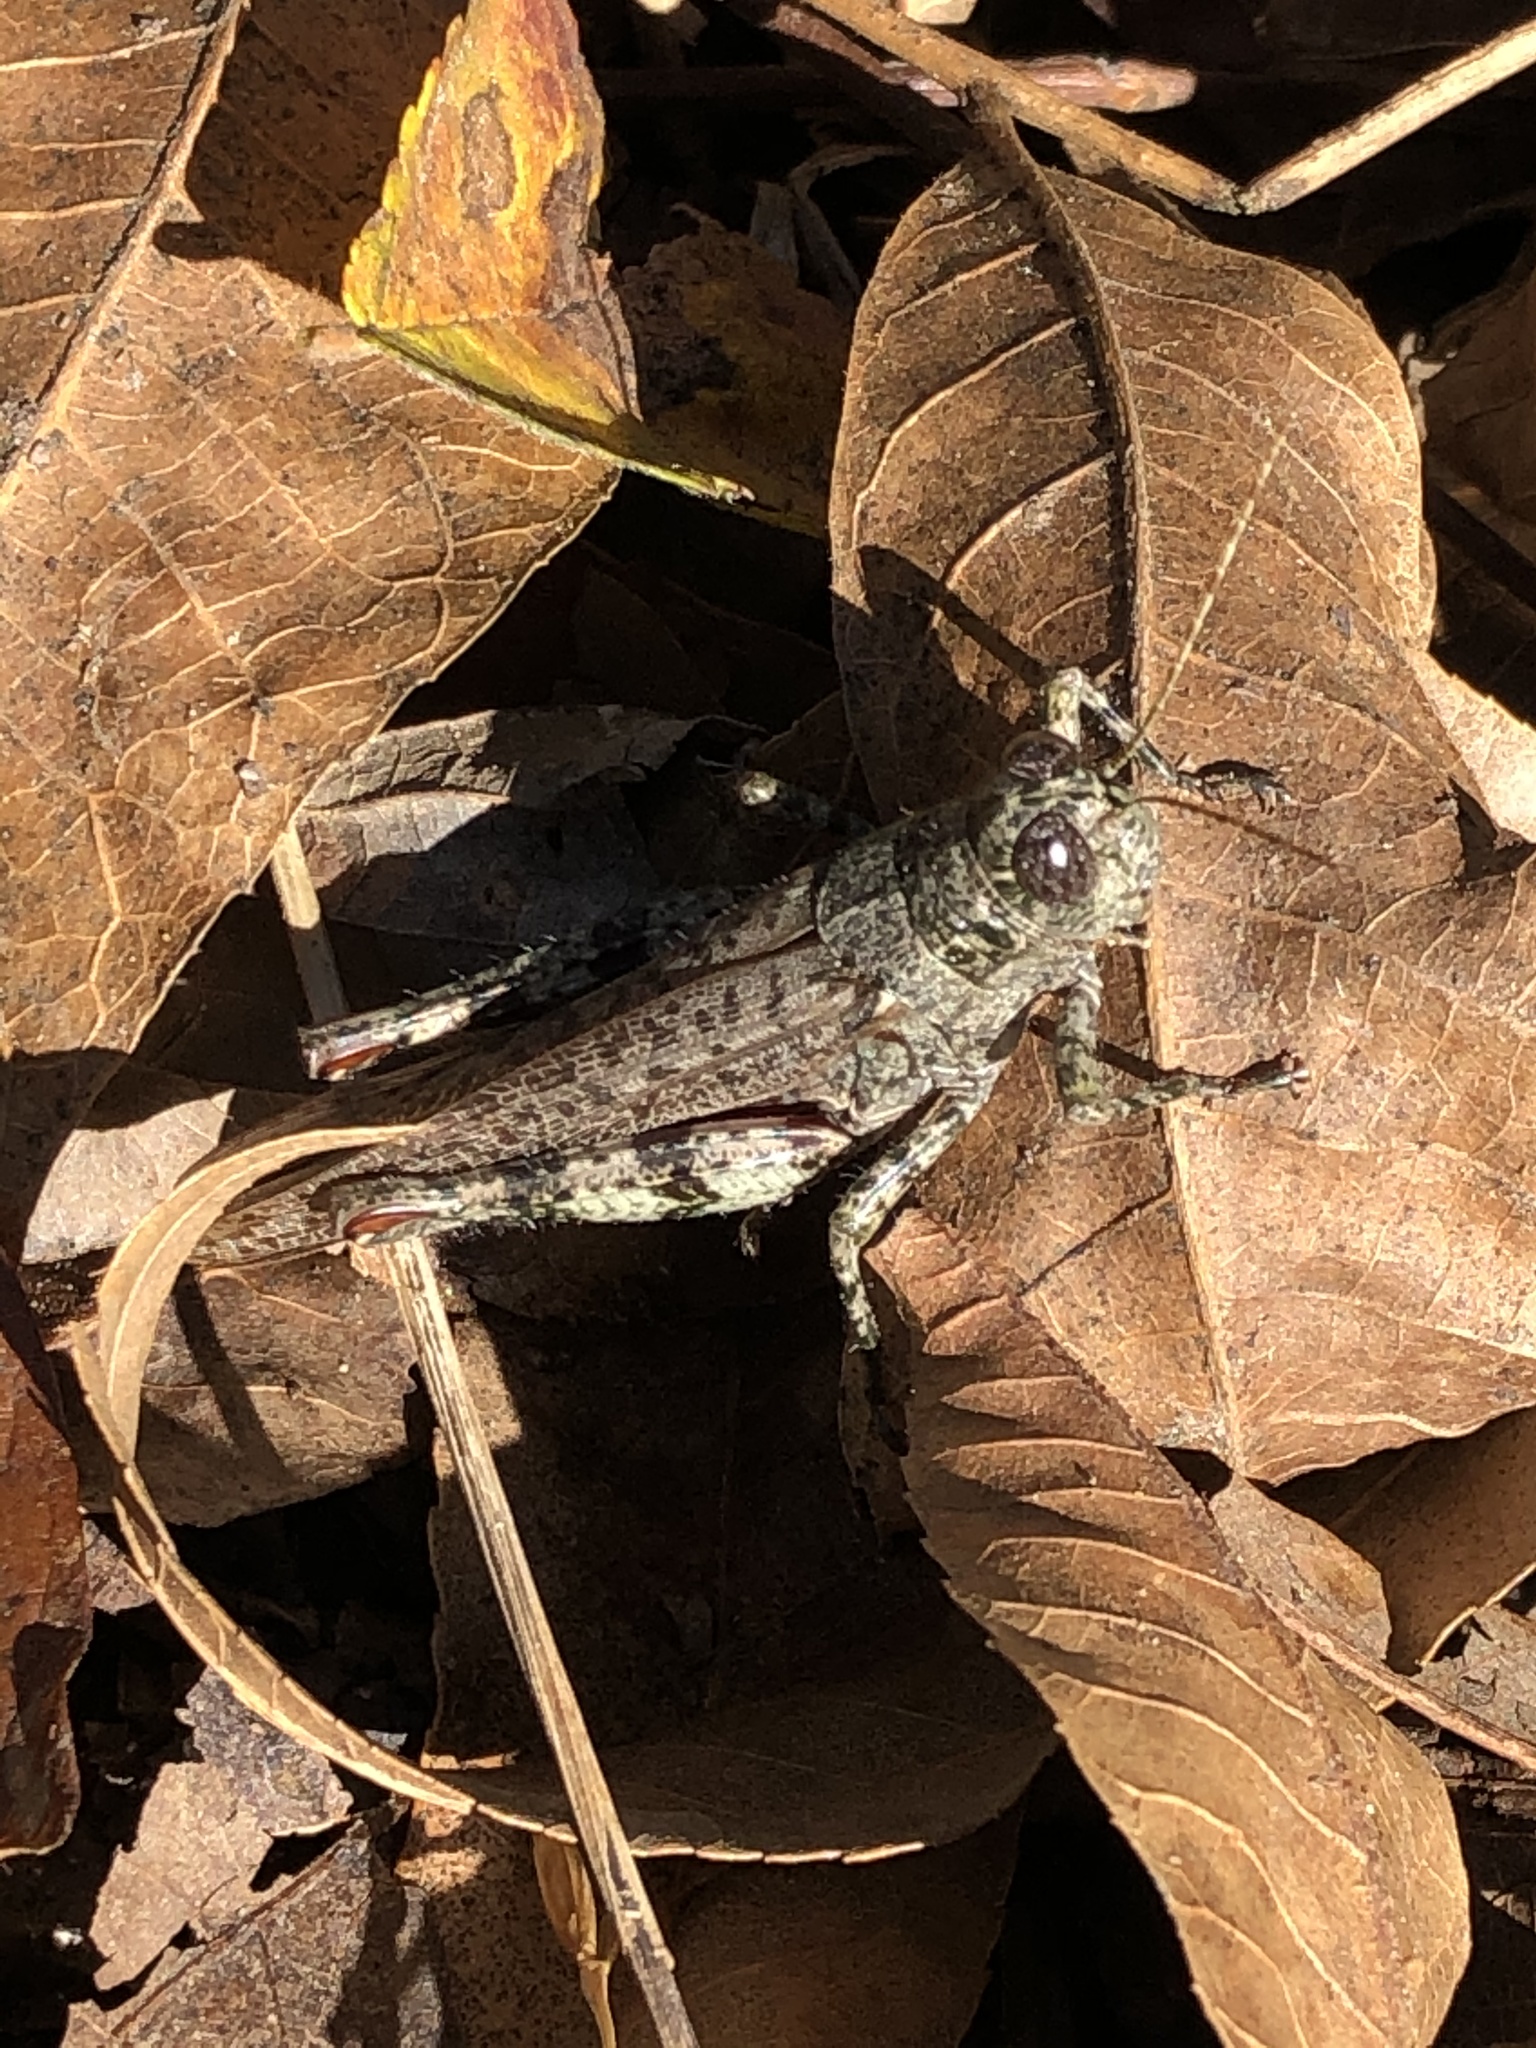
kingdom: Animalia
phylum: Arthropoda
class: Insecta
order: Orthoptera
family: Acrididae
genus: Melanoplus
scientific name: Melanoplus punctulatus
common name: Pine-tree spur-throat grasshopper
